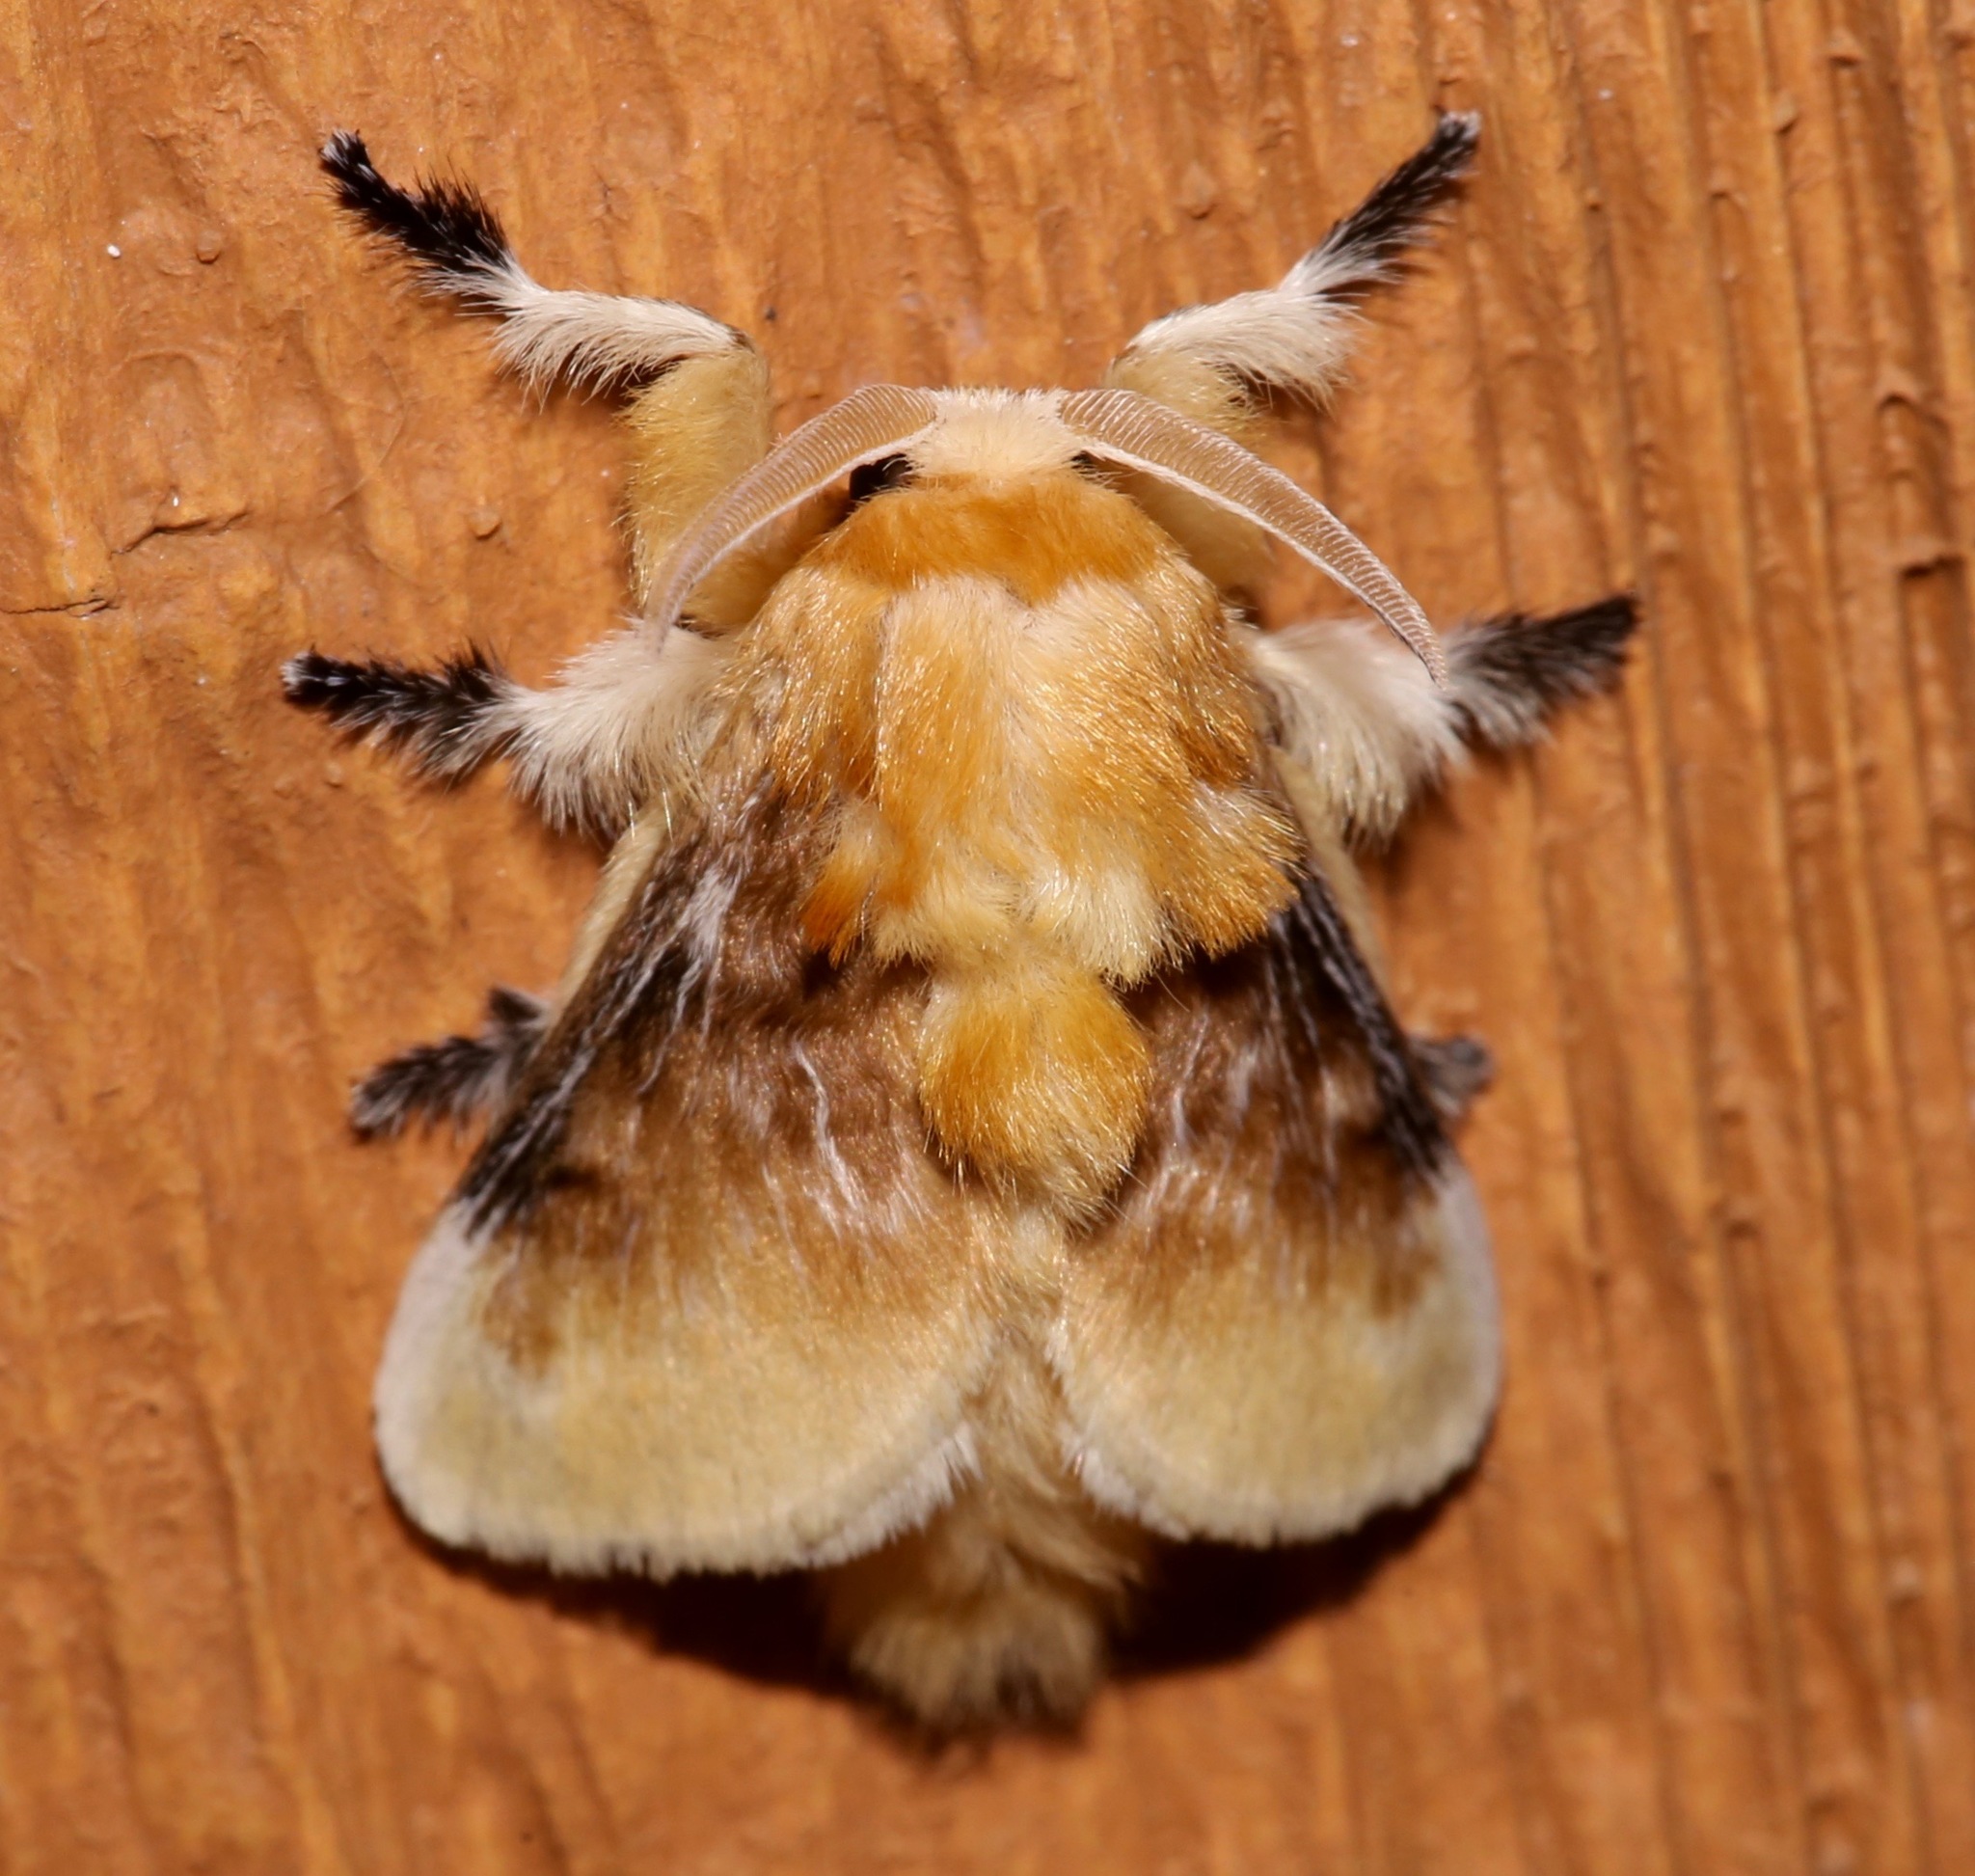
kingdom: Animalia
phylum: Arthropoda
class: Insecta
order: Lepidoptera
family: Megalopygidae
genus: Megalopyge
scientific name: Megalopyge opercularis
